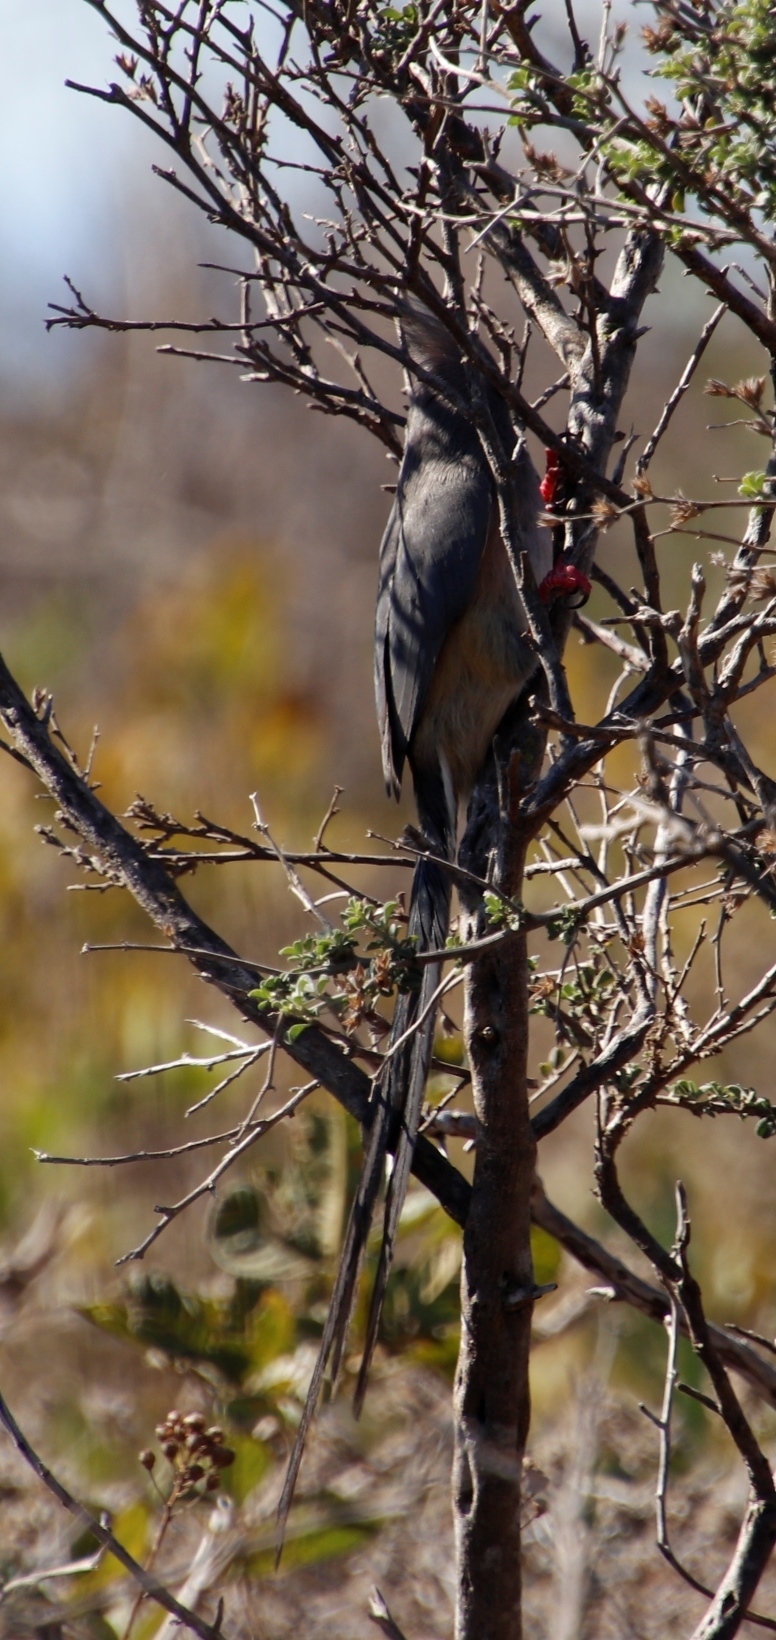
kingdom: Animalia
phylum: Chordata
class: Aves
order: Coliiformes
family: Coliidae
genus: Colius
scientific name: Colius colius
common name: White-backed mousebird
